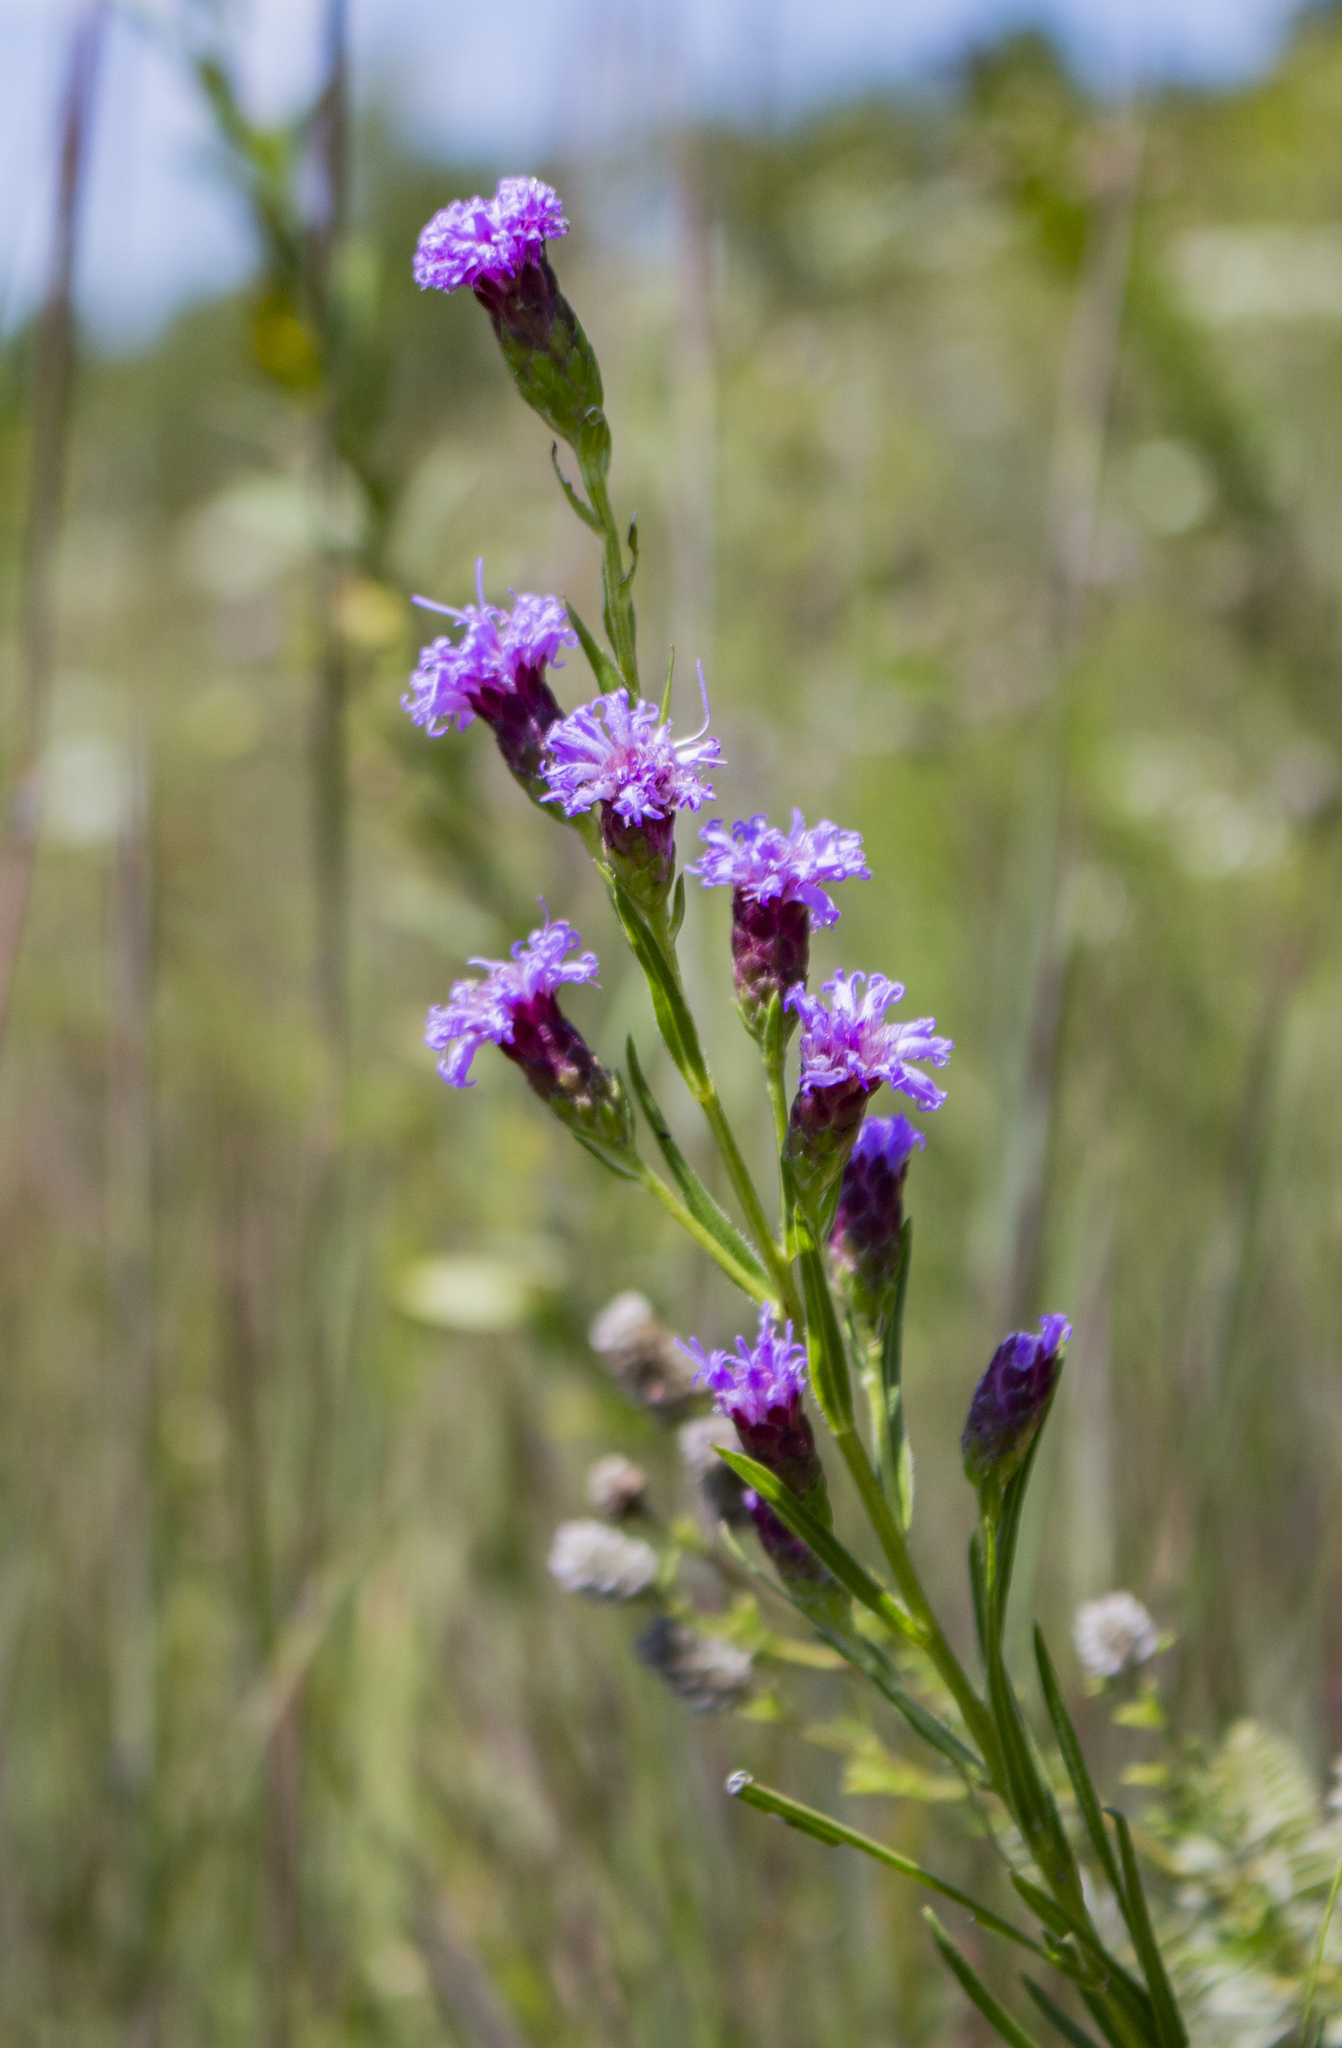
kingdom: Plantae
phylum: Tracheophyta
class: Magnoliopsida
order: Asterales
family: Asteraceae
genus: Liatris
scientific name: Liatris cylindracea
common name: Few-head blazingstar
